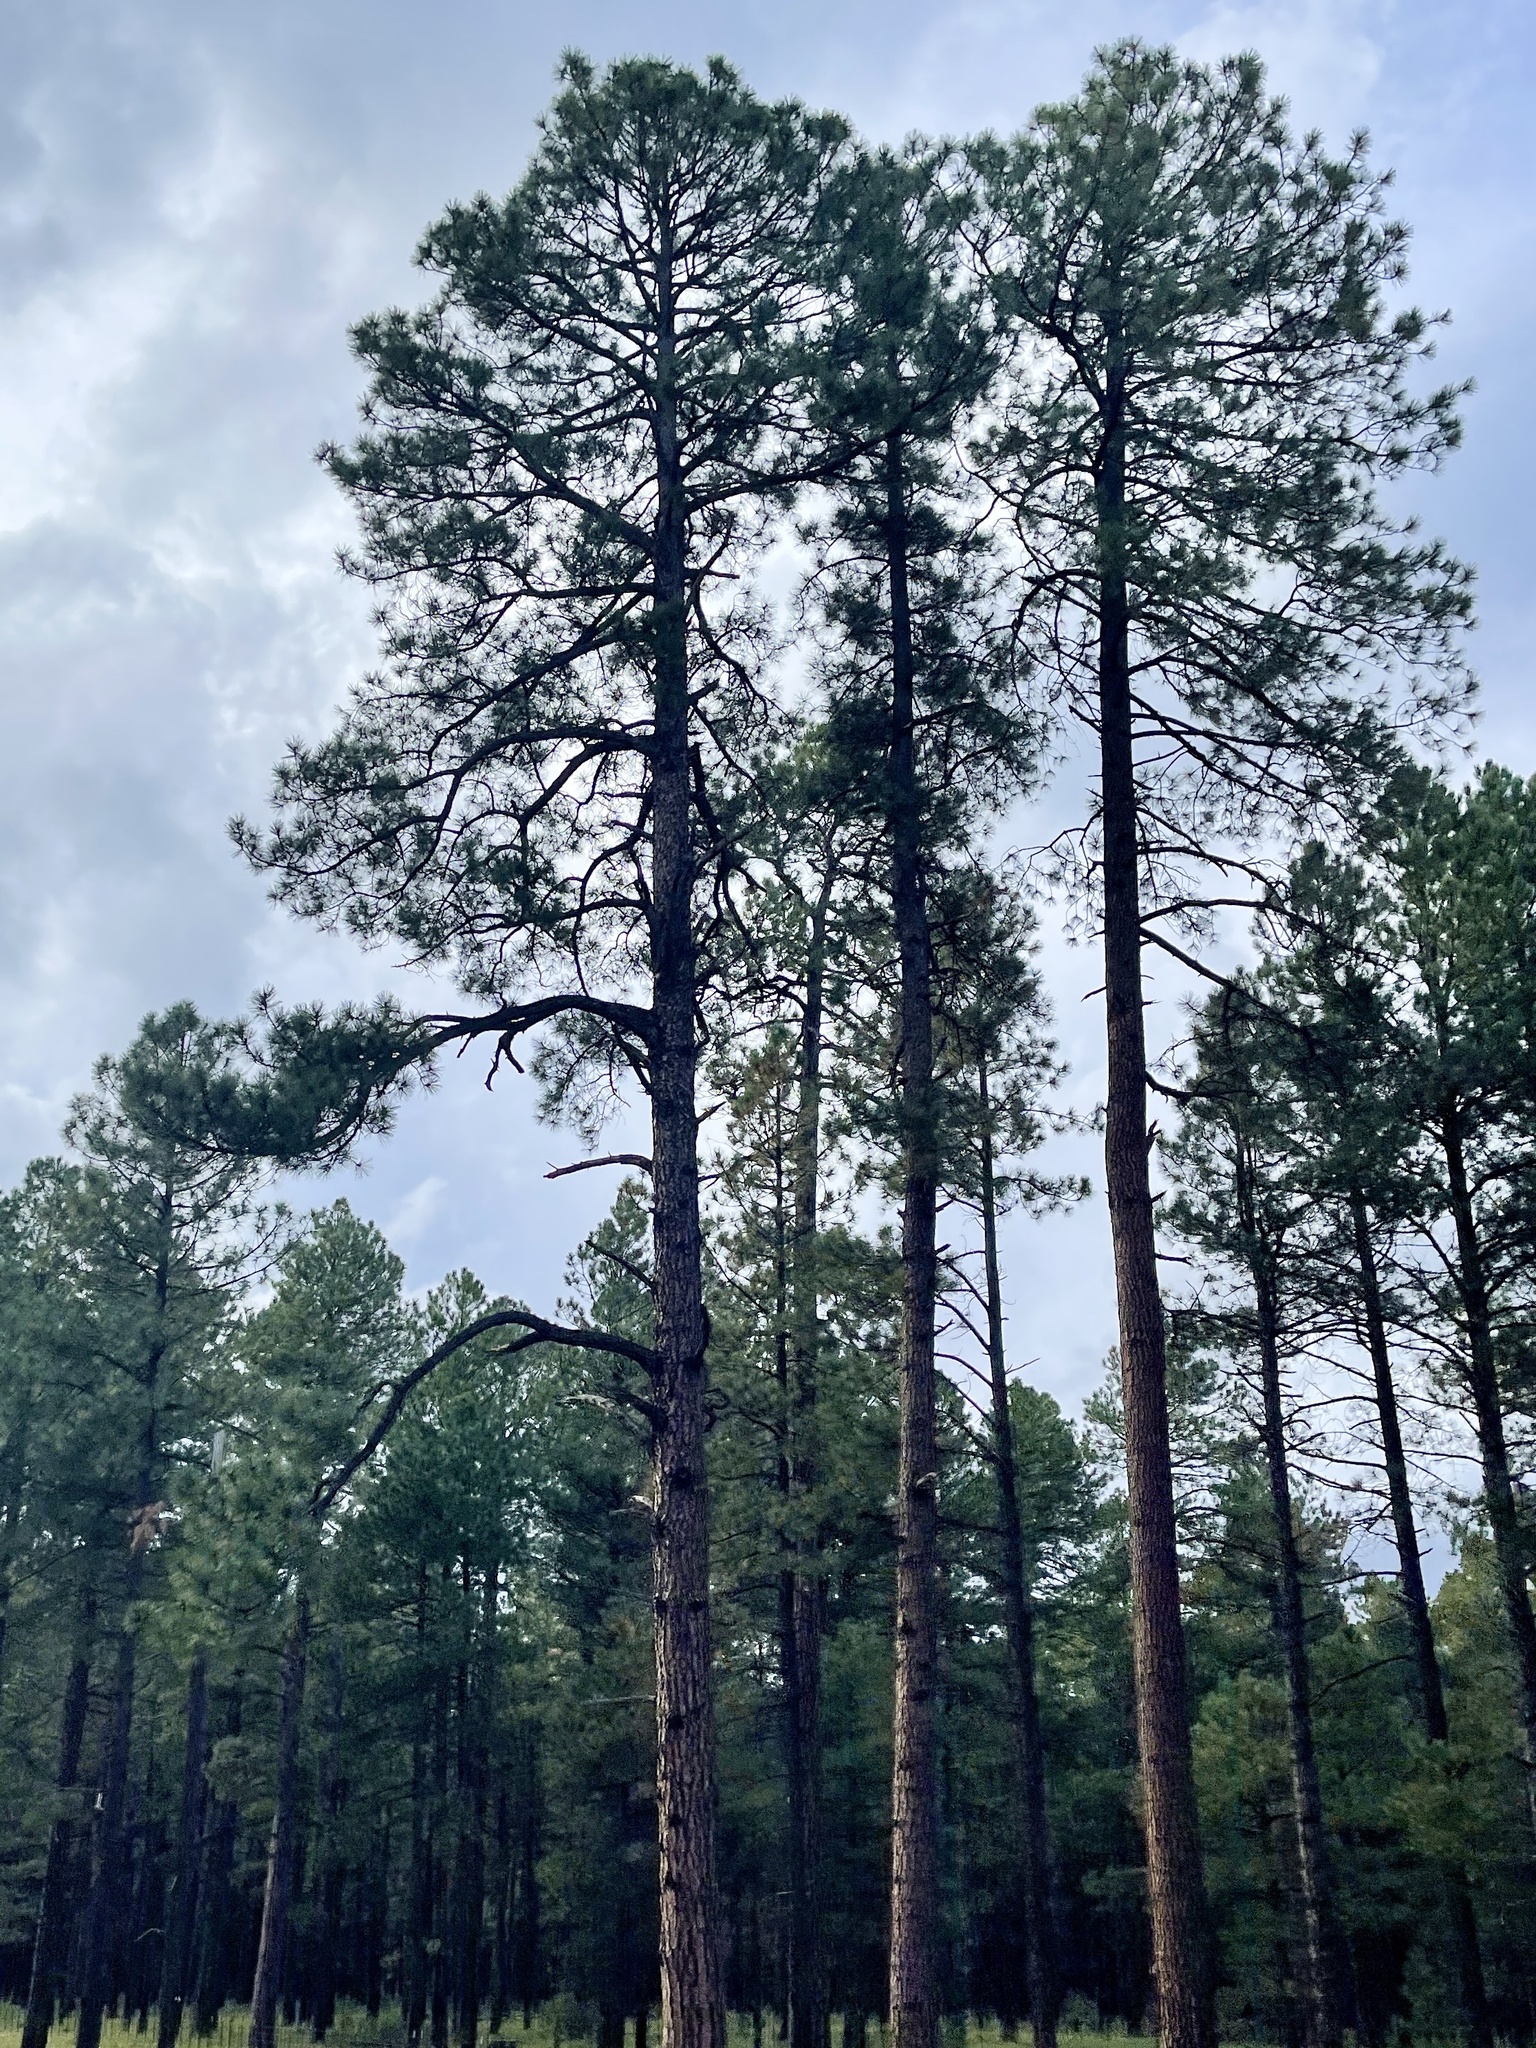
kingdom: Plantae
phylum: Tracheophyta
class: Pinopsida
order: Pinales
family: Pinaceae
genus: Pinus
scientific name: Pinus ponderosa
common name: Western yellow-pine
